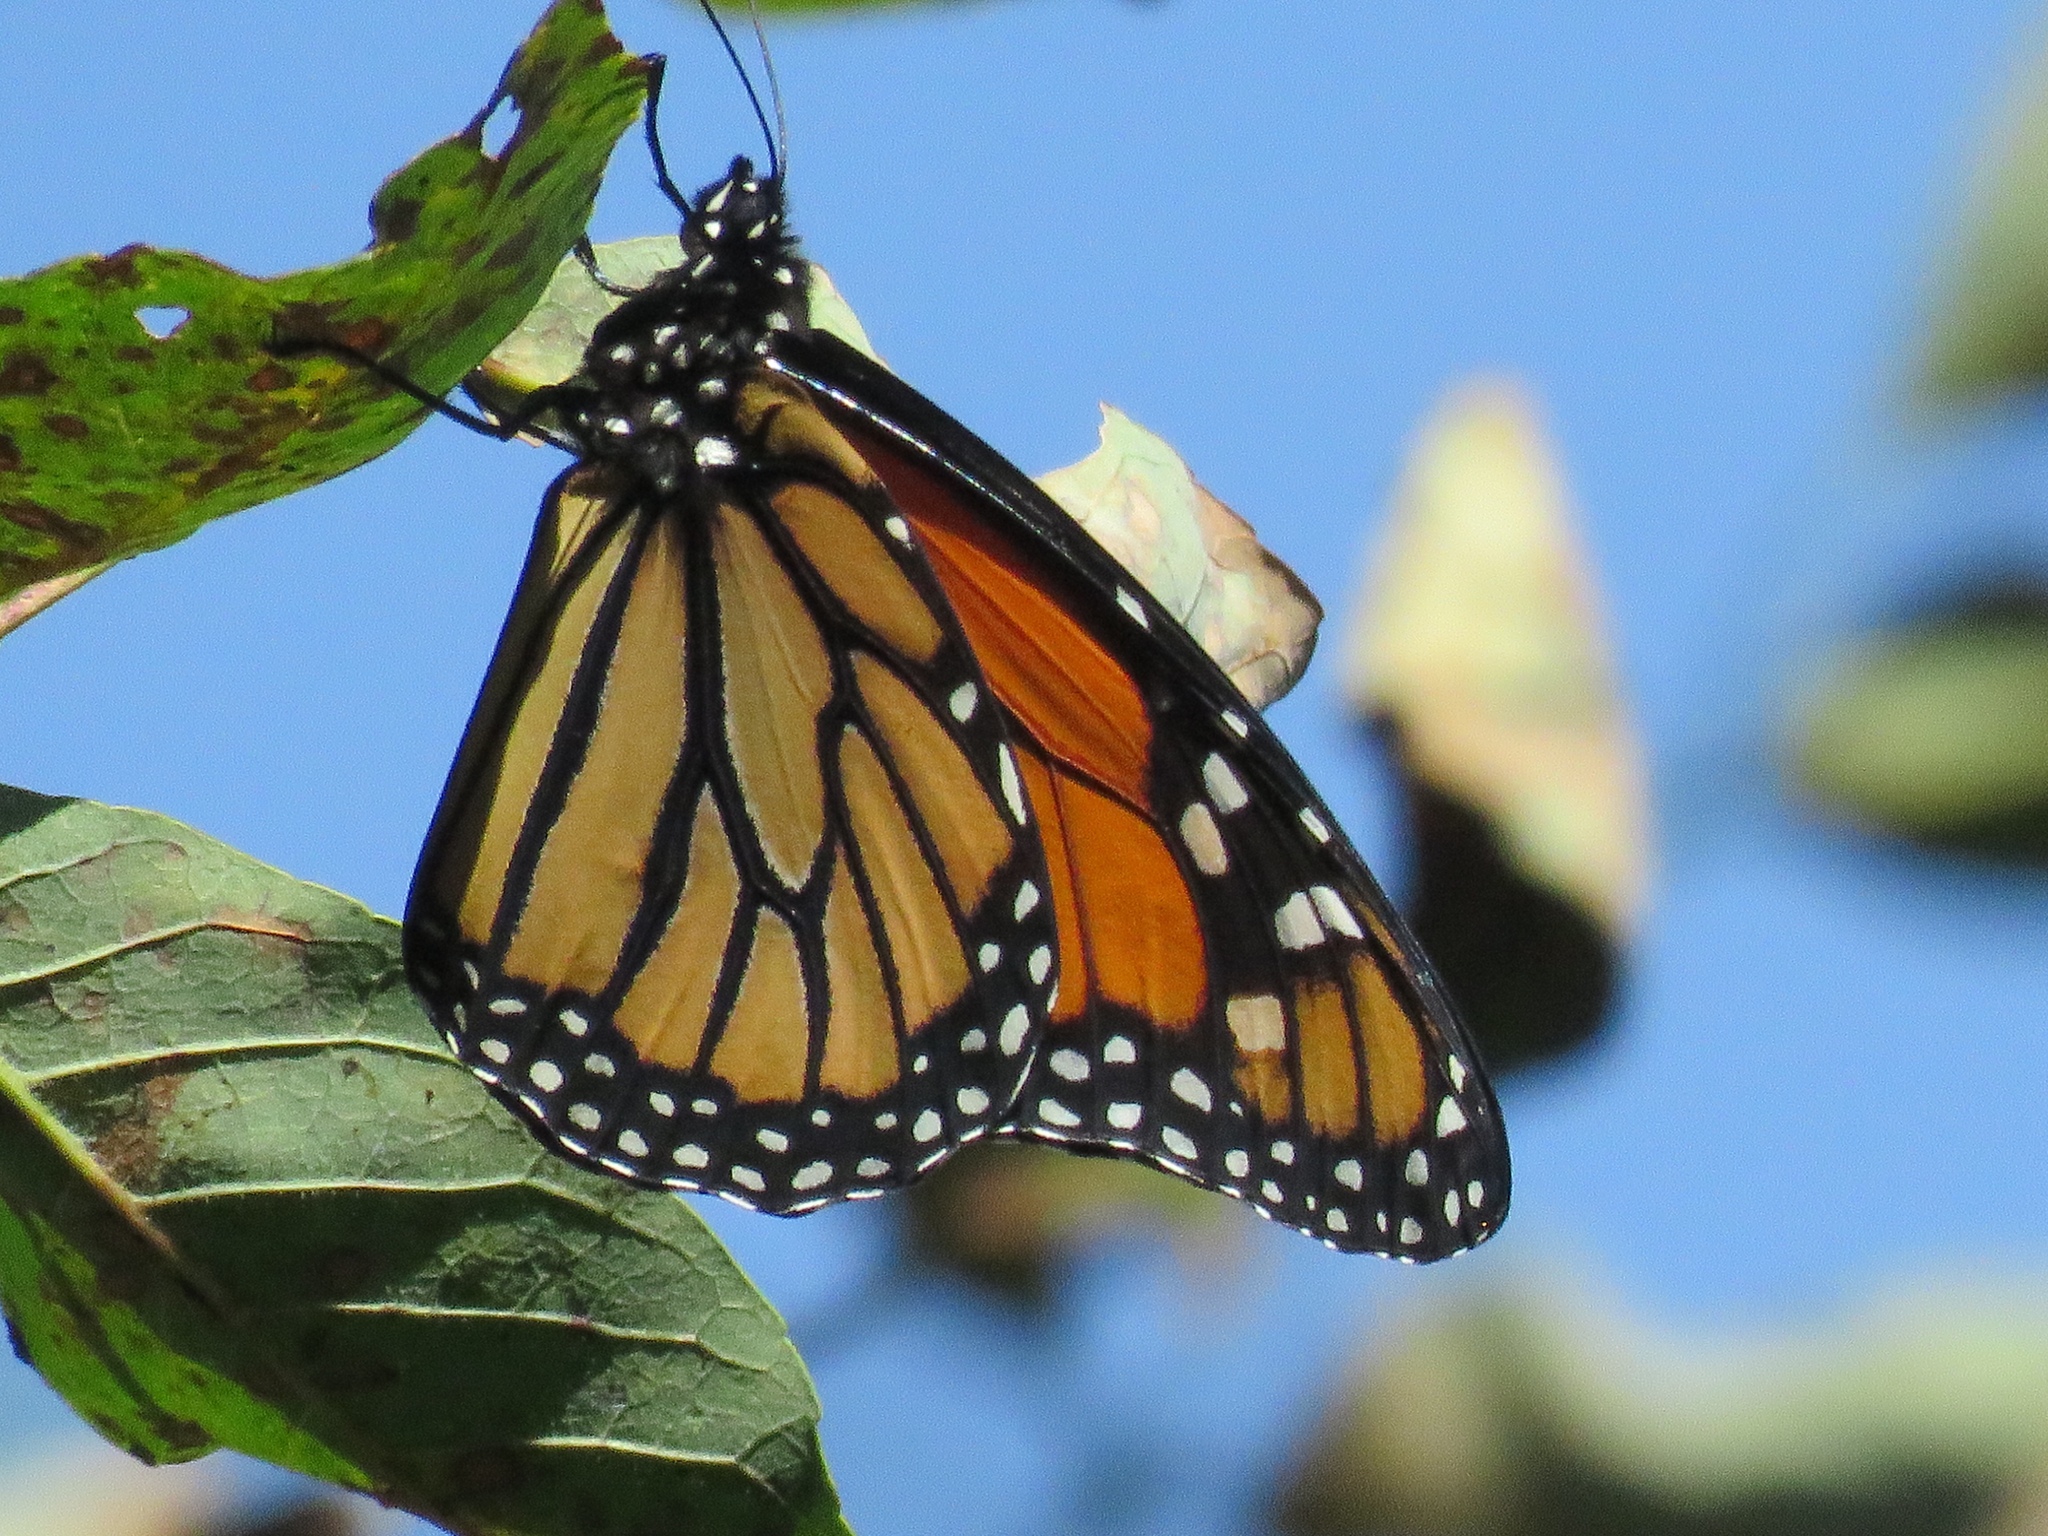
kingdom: Animalia
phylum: Arthropoda
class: Insecta
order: Lepidoptera
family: Nymphalidae
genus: Danaus
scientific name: Danaus plexippus
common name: Monarch
